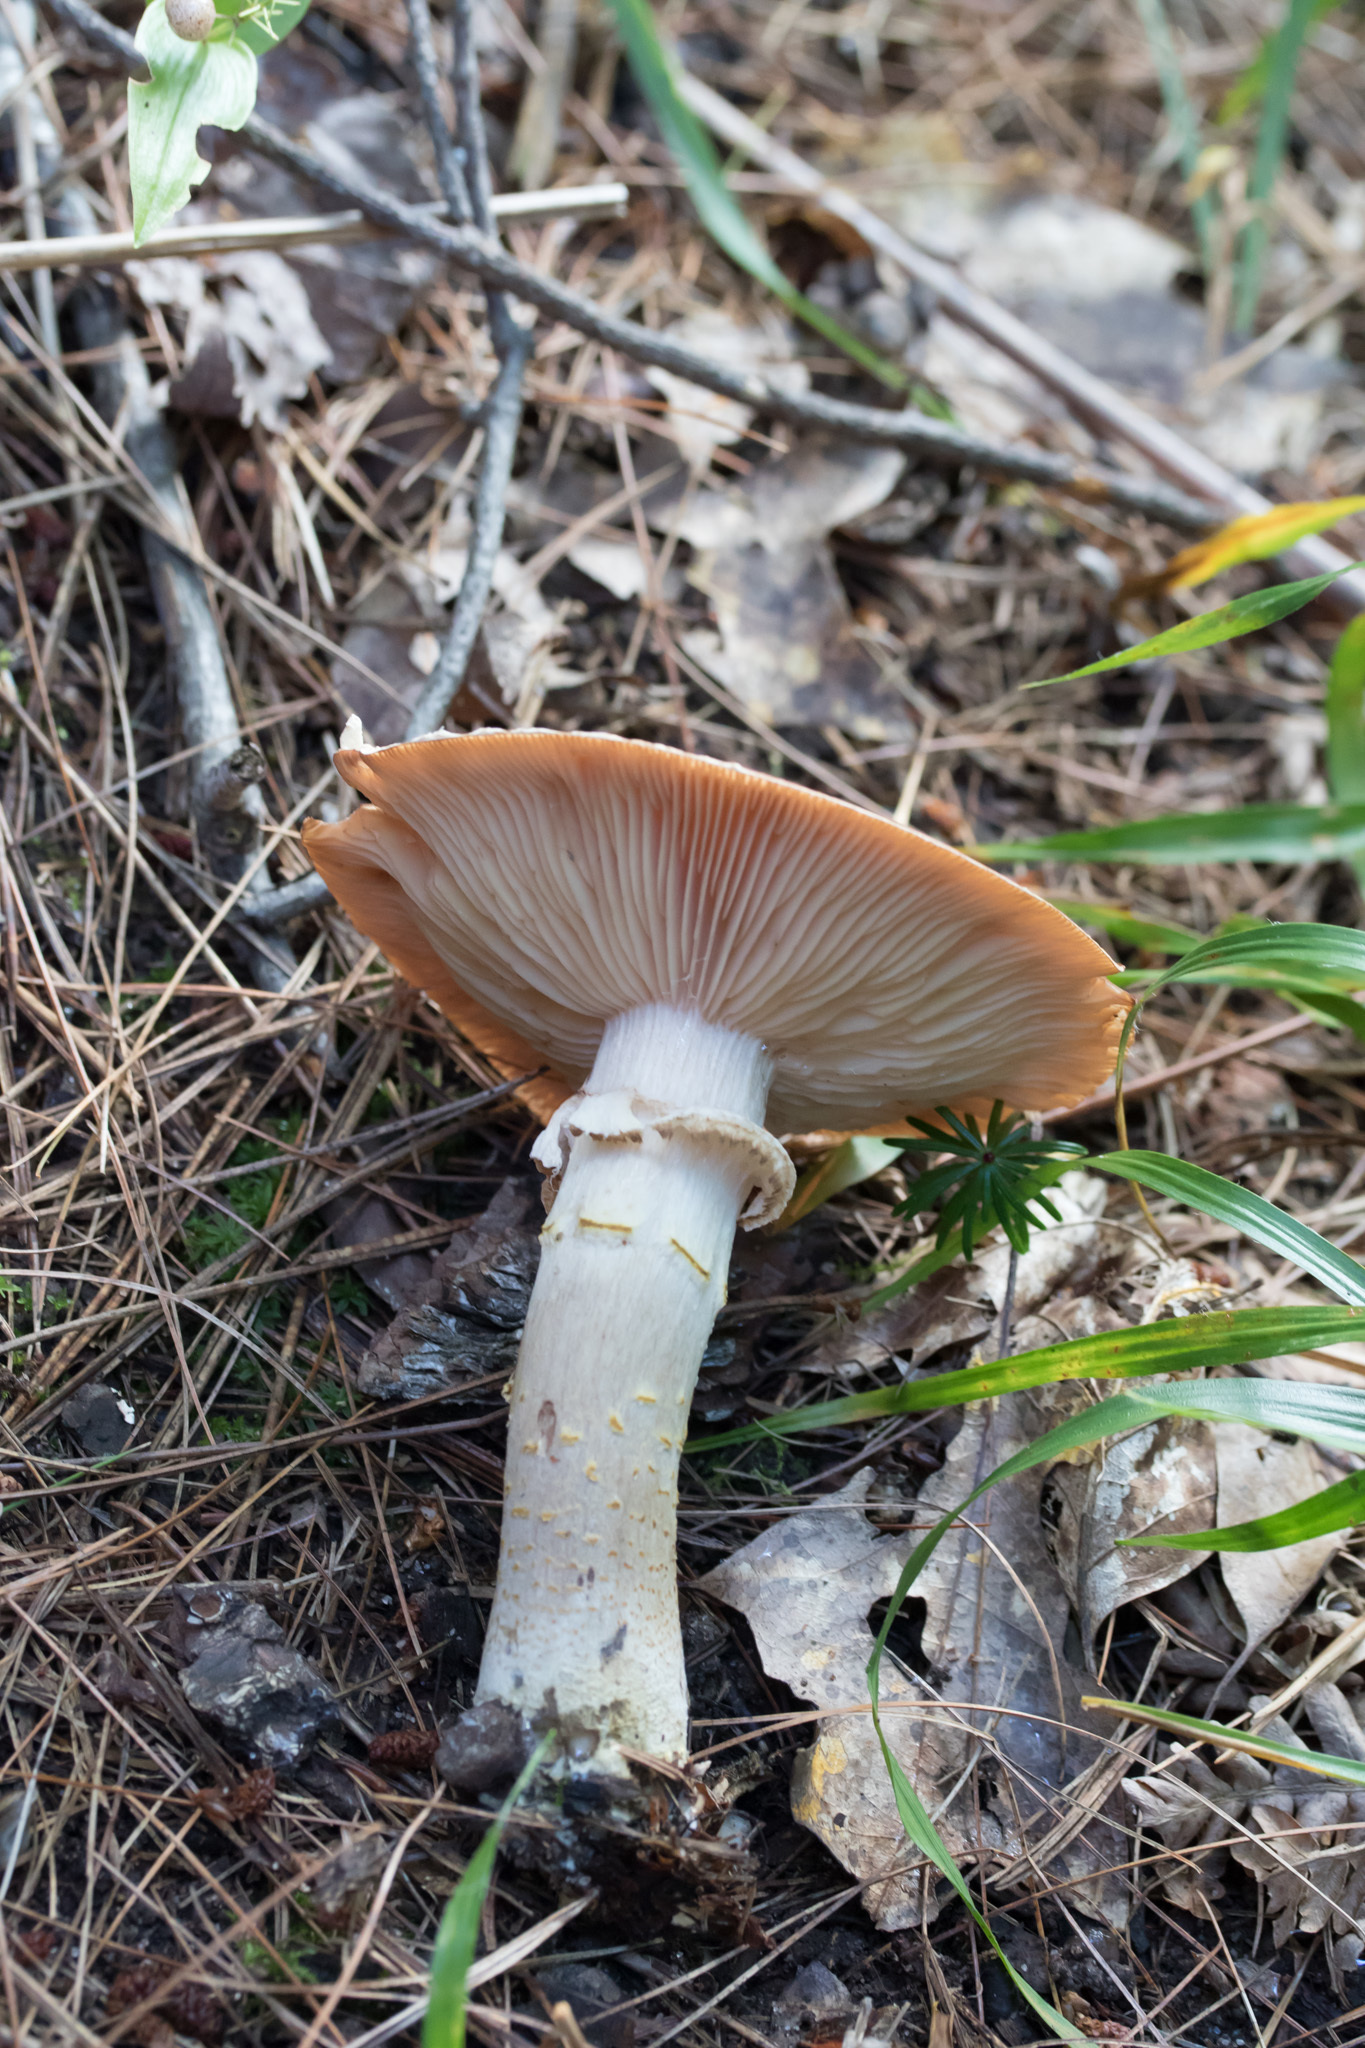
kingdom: Fungi
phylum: Basidiomycota
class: Agaricomycetes
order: Agaricales
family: Physalacriaceae
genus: Armillaria
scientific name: Armillaria ostoyae
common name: Dark honey fungus
